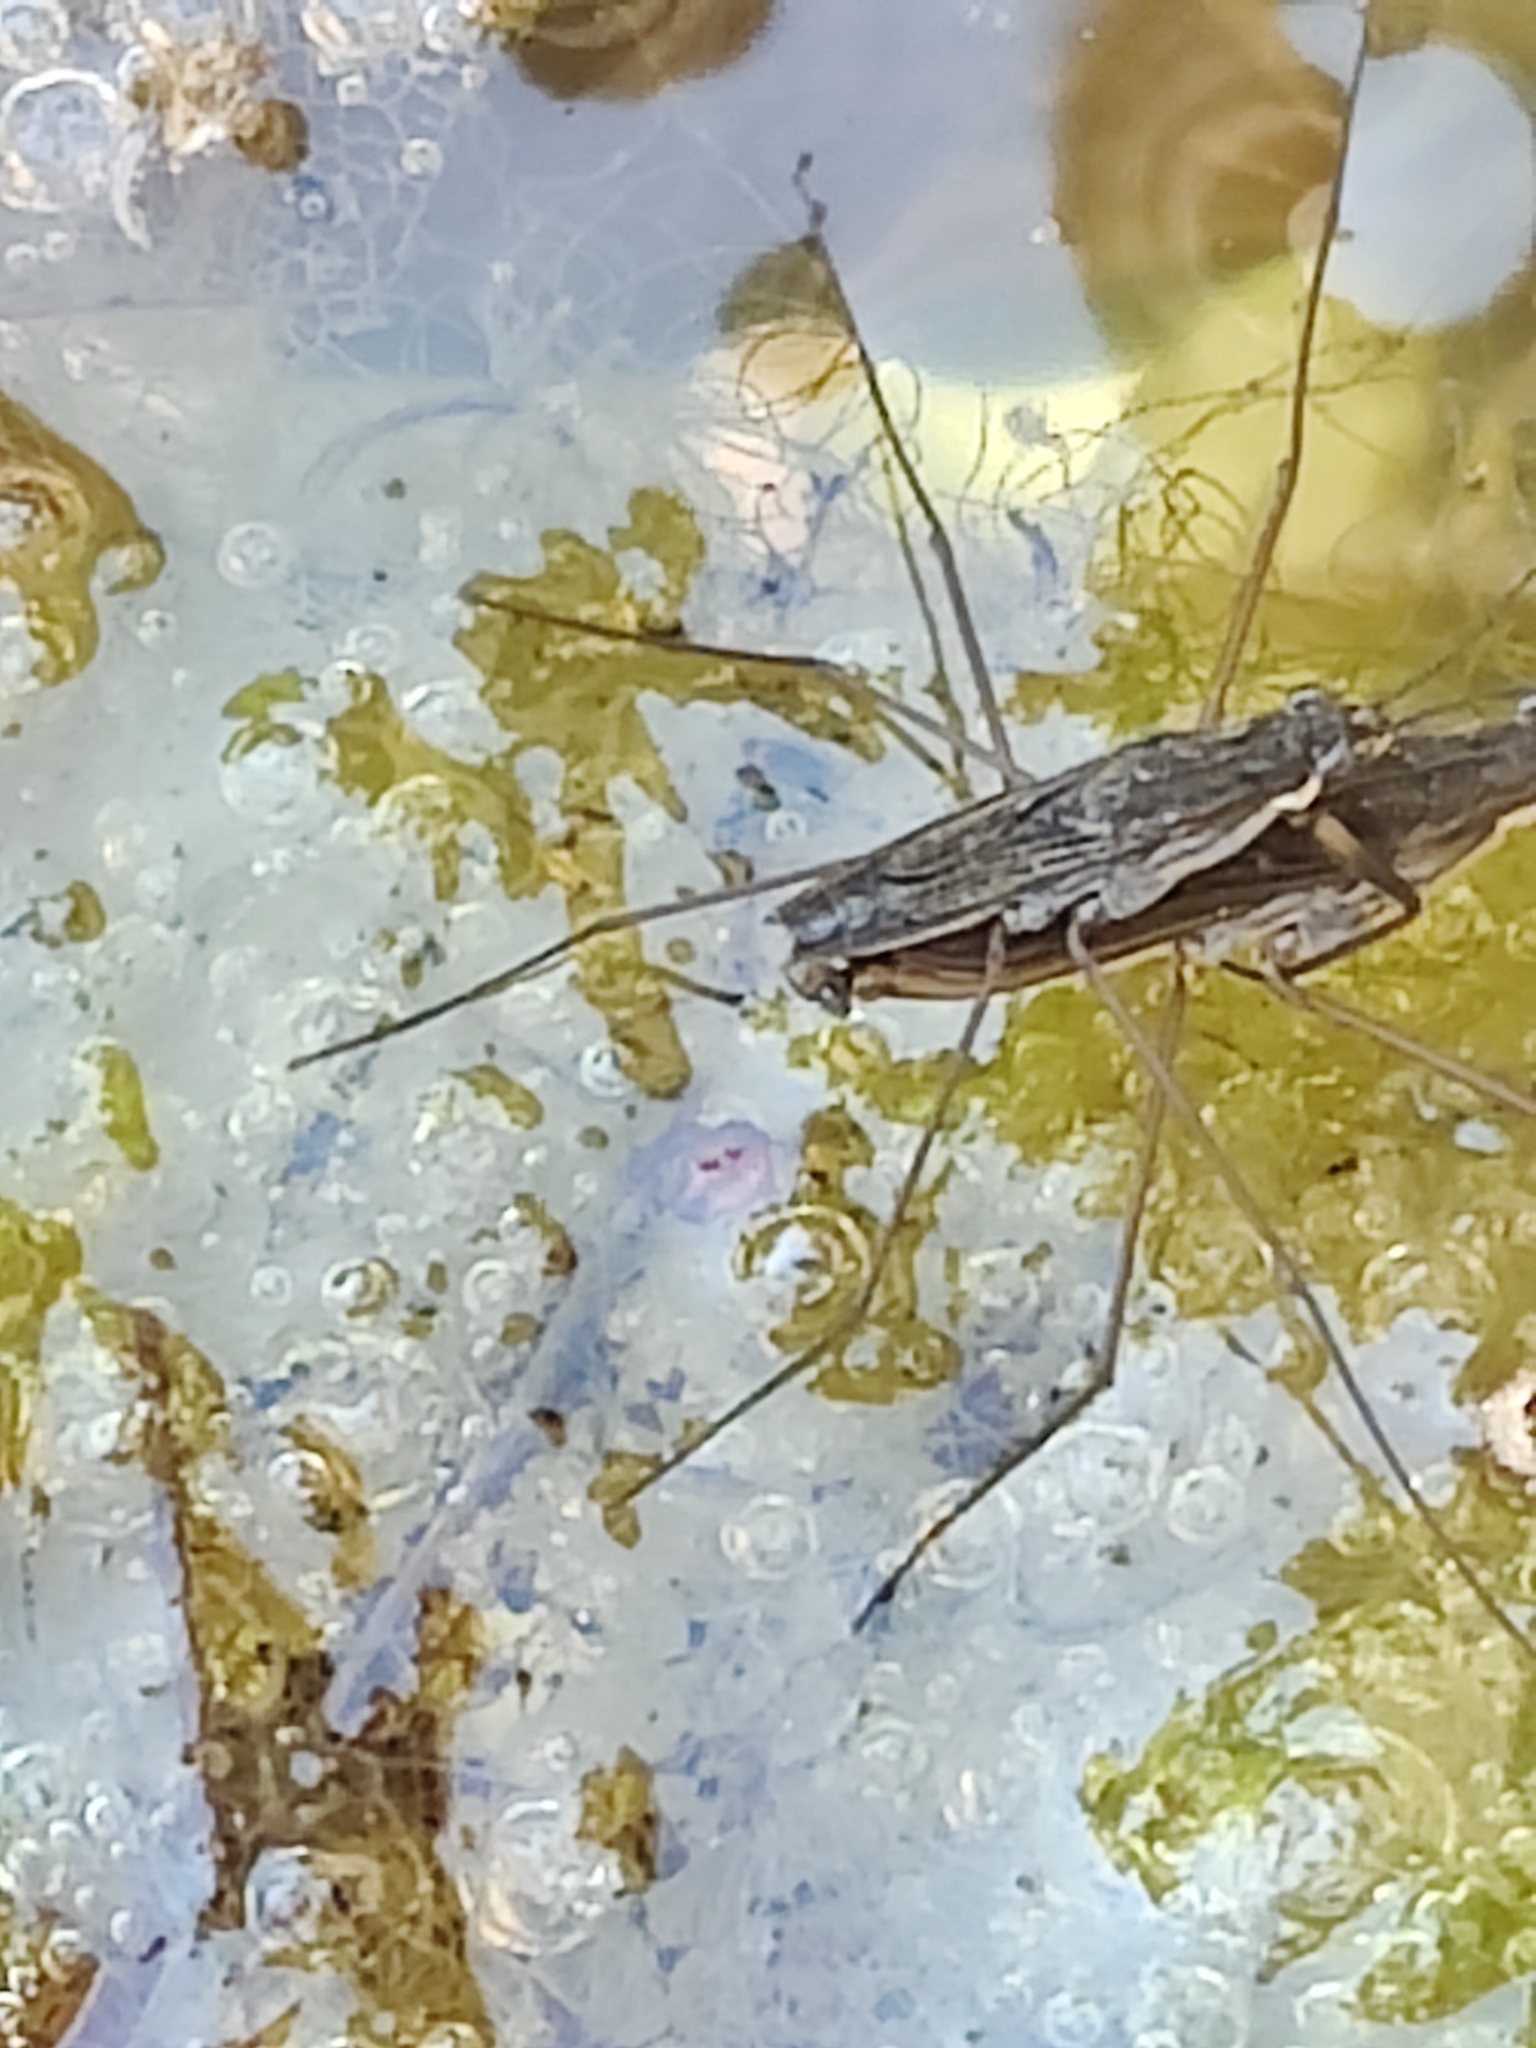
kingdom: Animalia
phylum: Arthropoda
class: Insecta
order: Hemiptera
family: Gerridae
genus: Gerris
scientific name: Gerris
